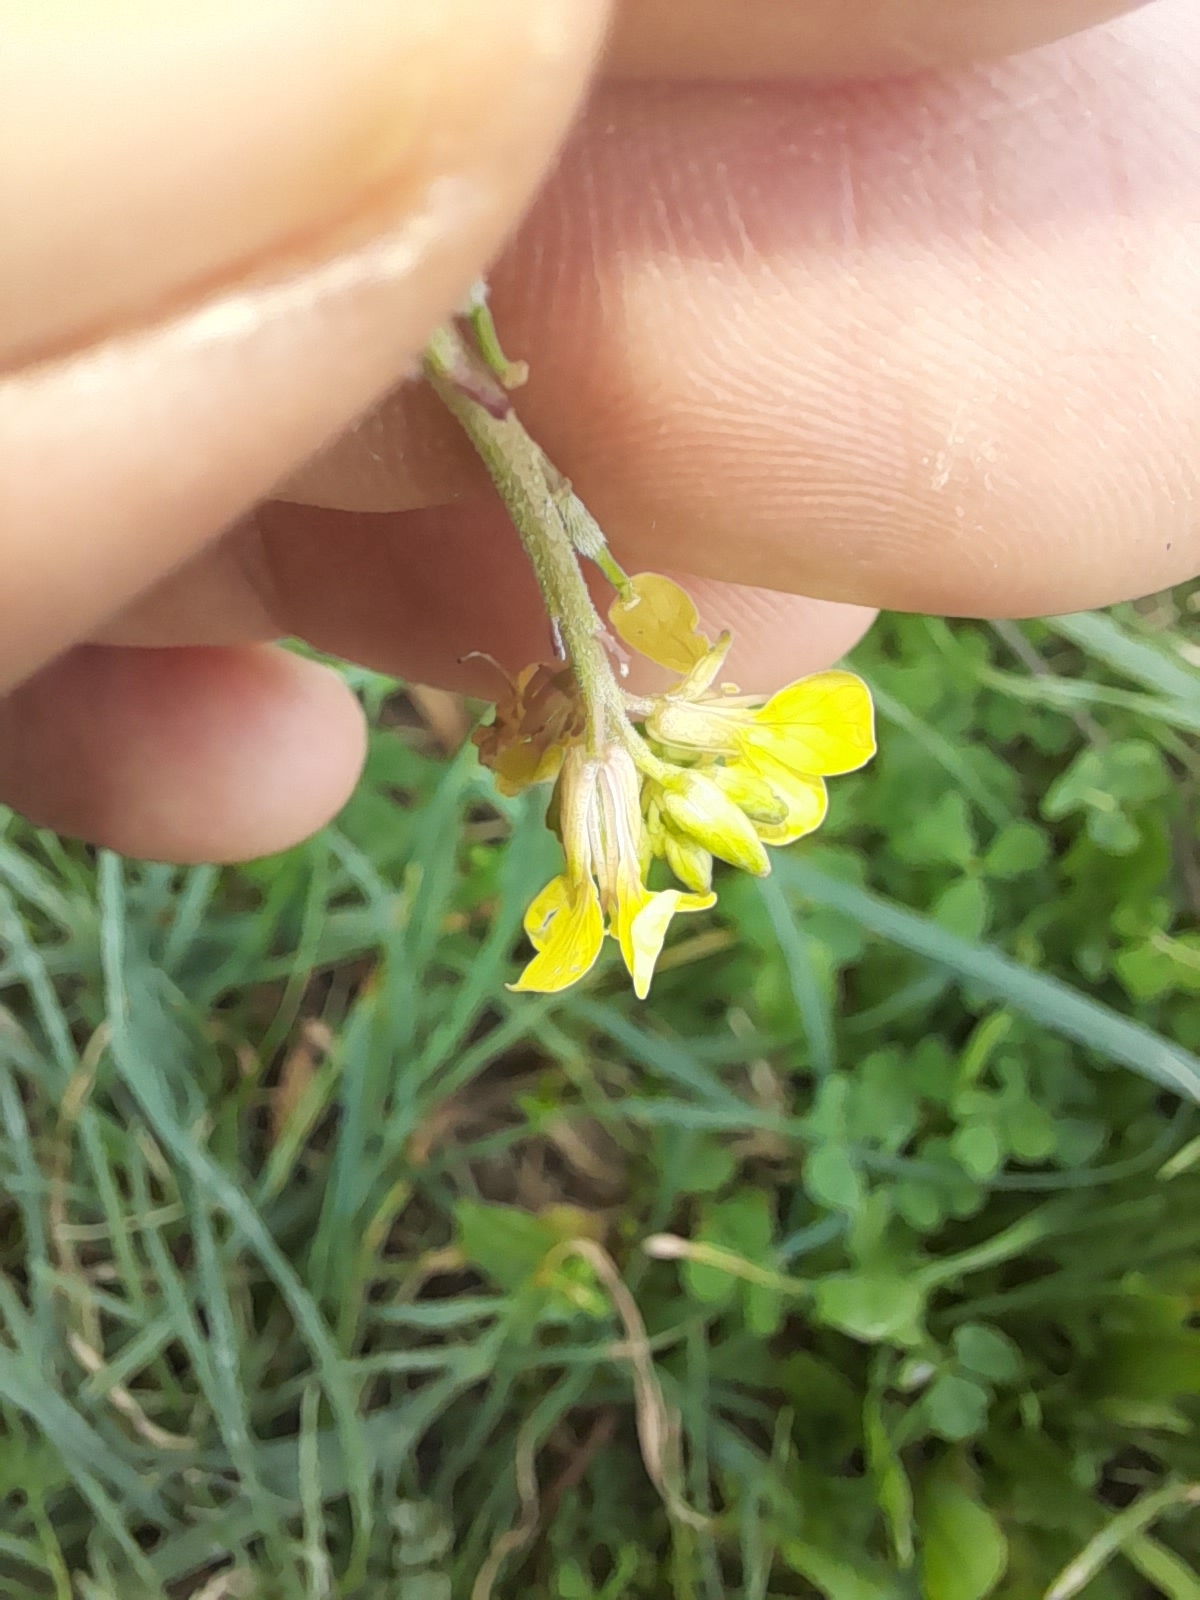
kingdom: Plantae
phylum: Tracheophyta
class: Magnoliopsida
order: Brassicales
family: Brassicaceae
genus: Rapistrum
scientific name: Rapistrum rugosum
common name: Annual bastardcabbage
